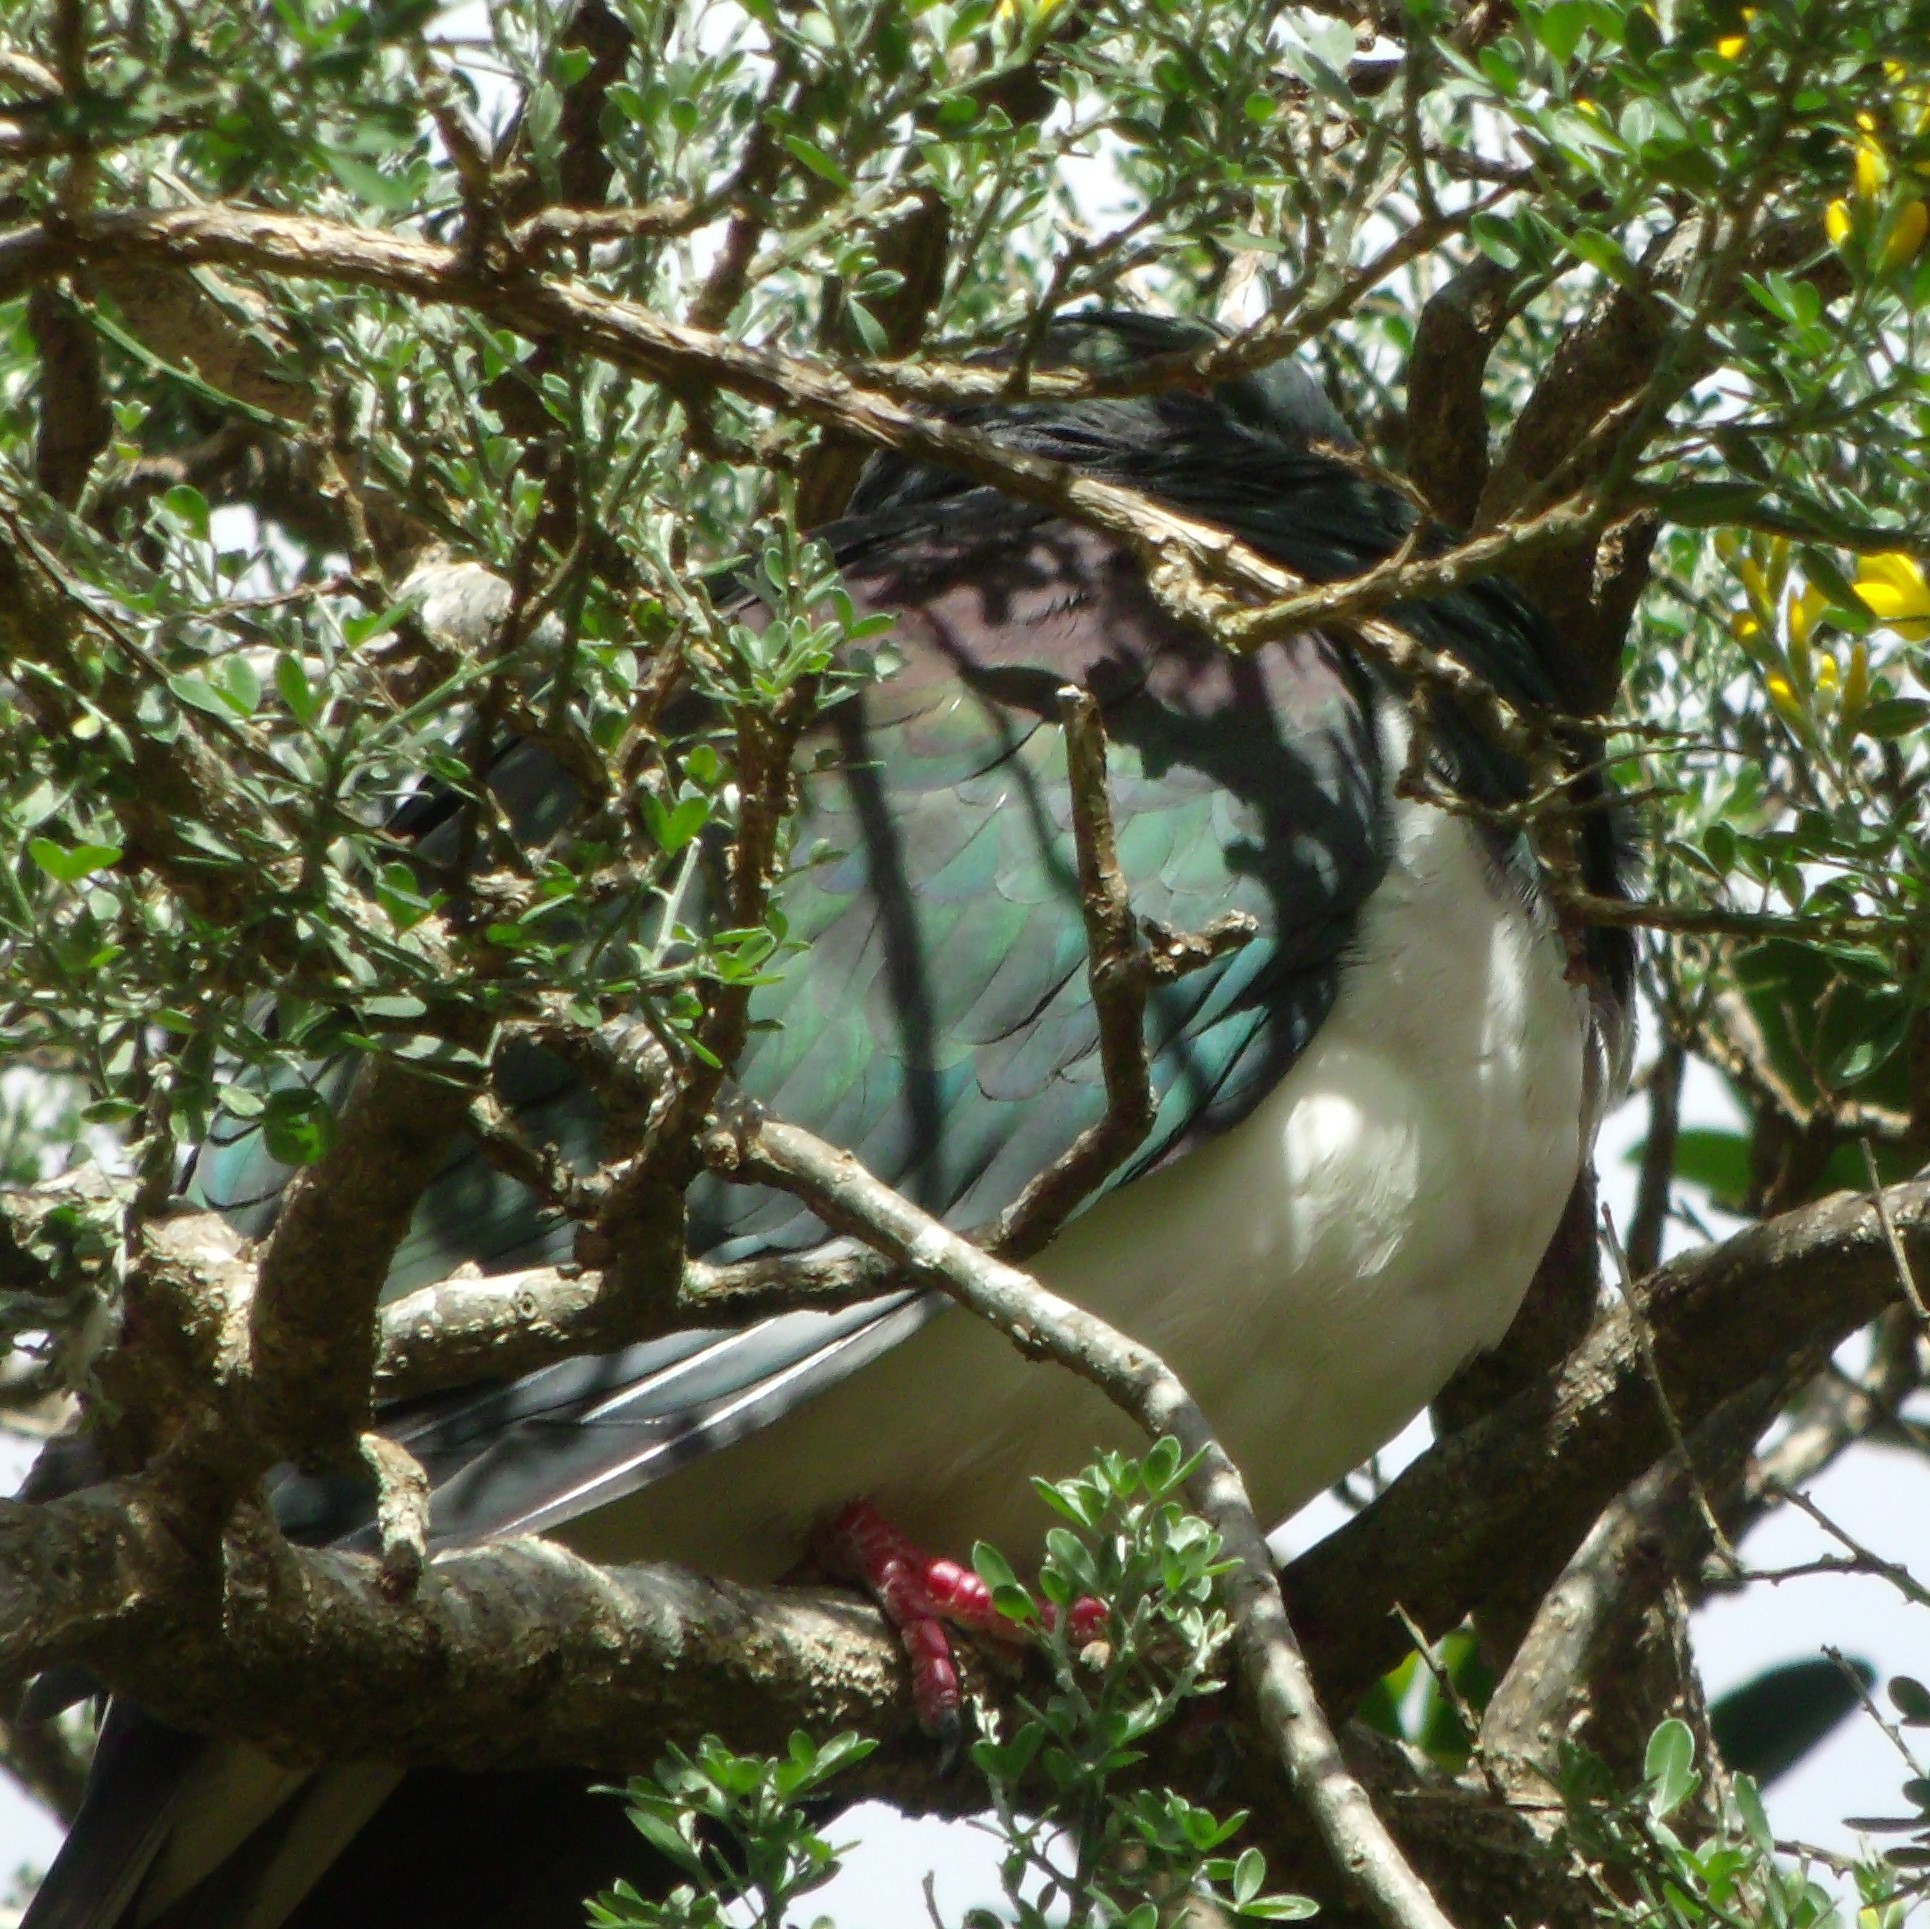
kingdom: Animalia
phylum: Chordata
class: Aves
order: Columbiformes
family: Columbidae
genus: Hemiphaga
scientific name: Hemiphaga novaeseelandiae
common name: New zealand pigeon
